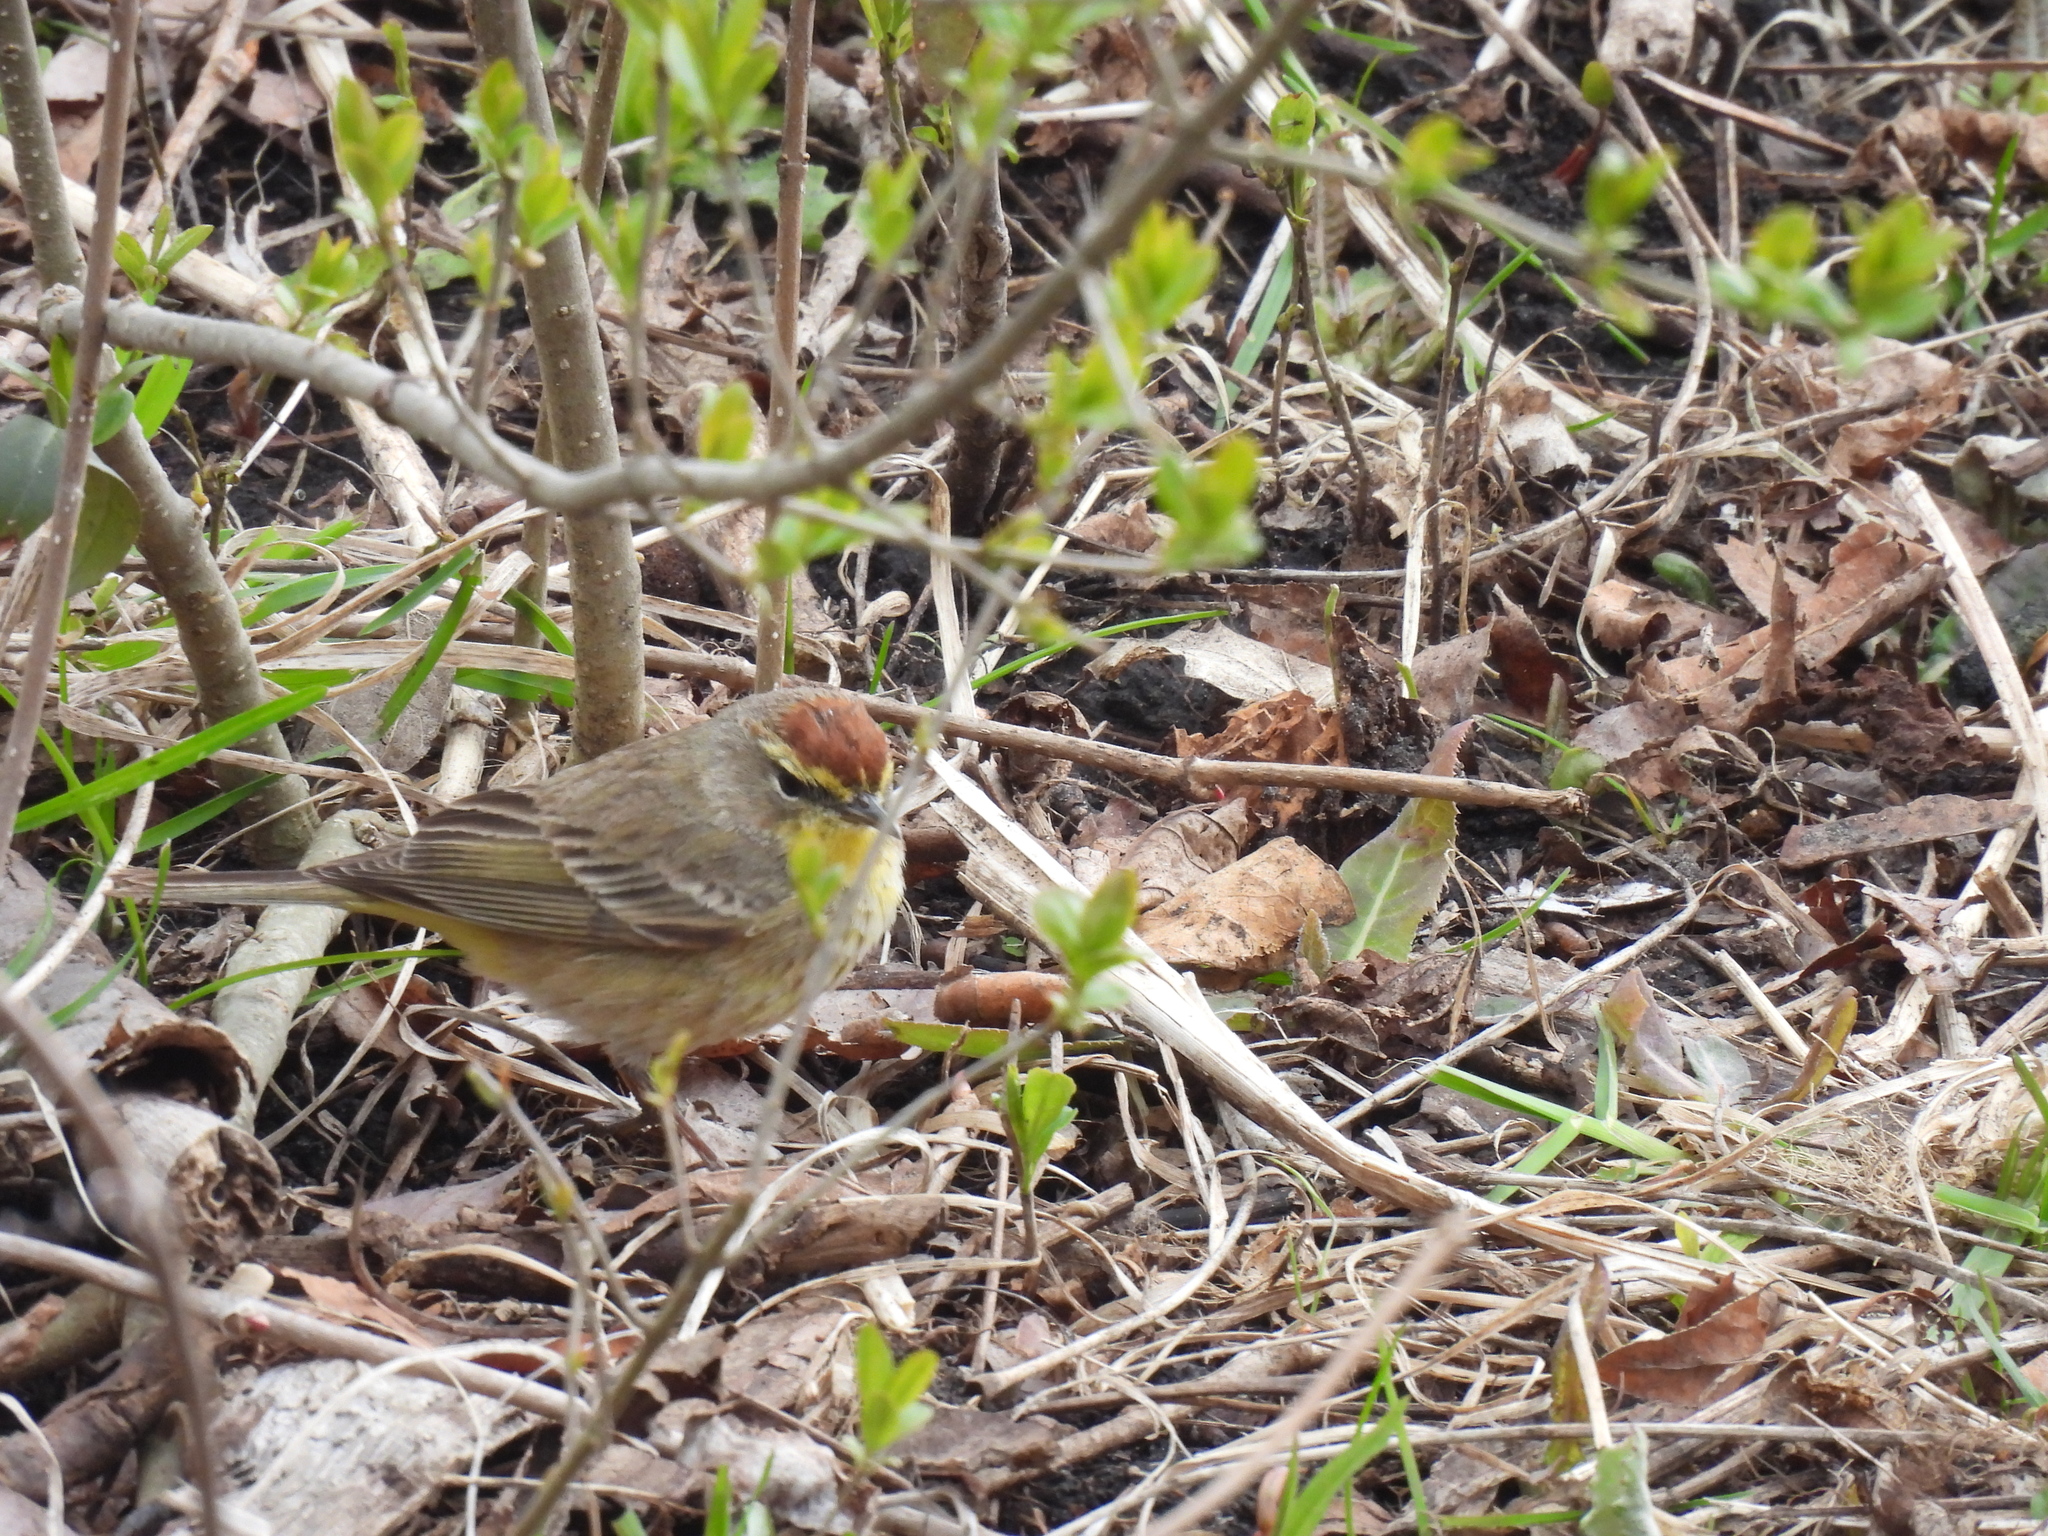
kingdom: Animalia
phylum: Chordata
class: Aves
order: Passeriformes
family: Parulidae
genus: Setophaga
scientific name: Setophaga palmarum
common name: Palm warbler
